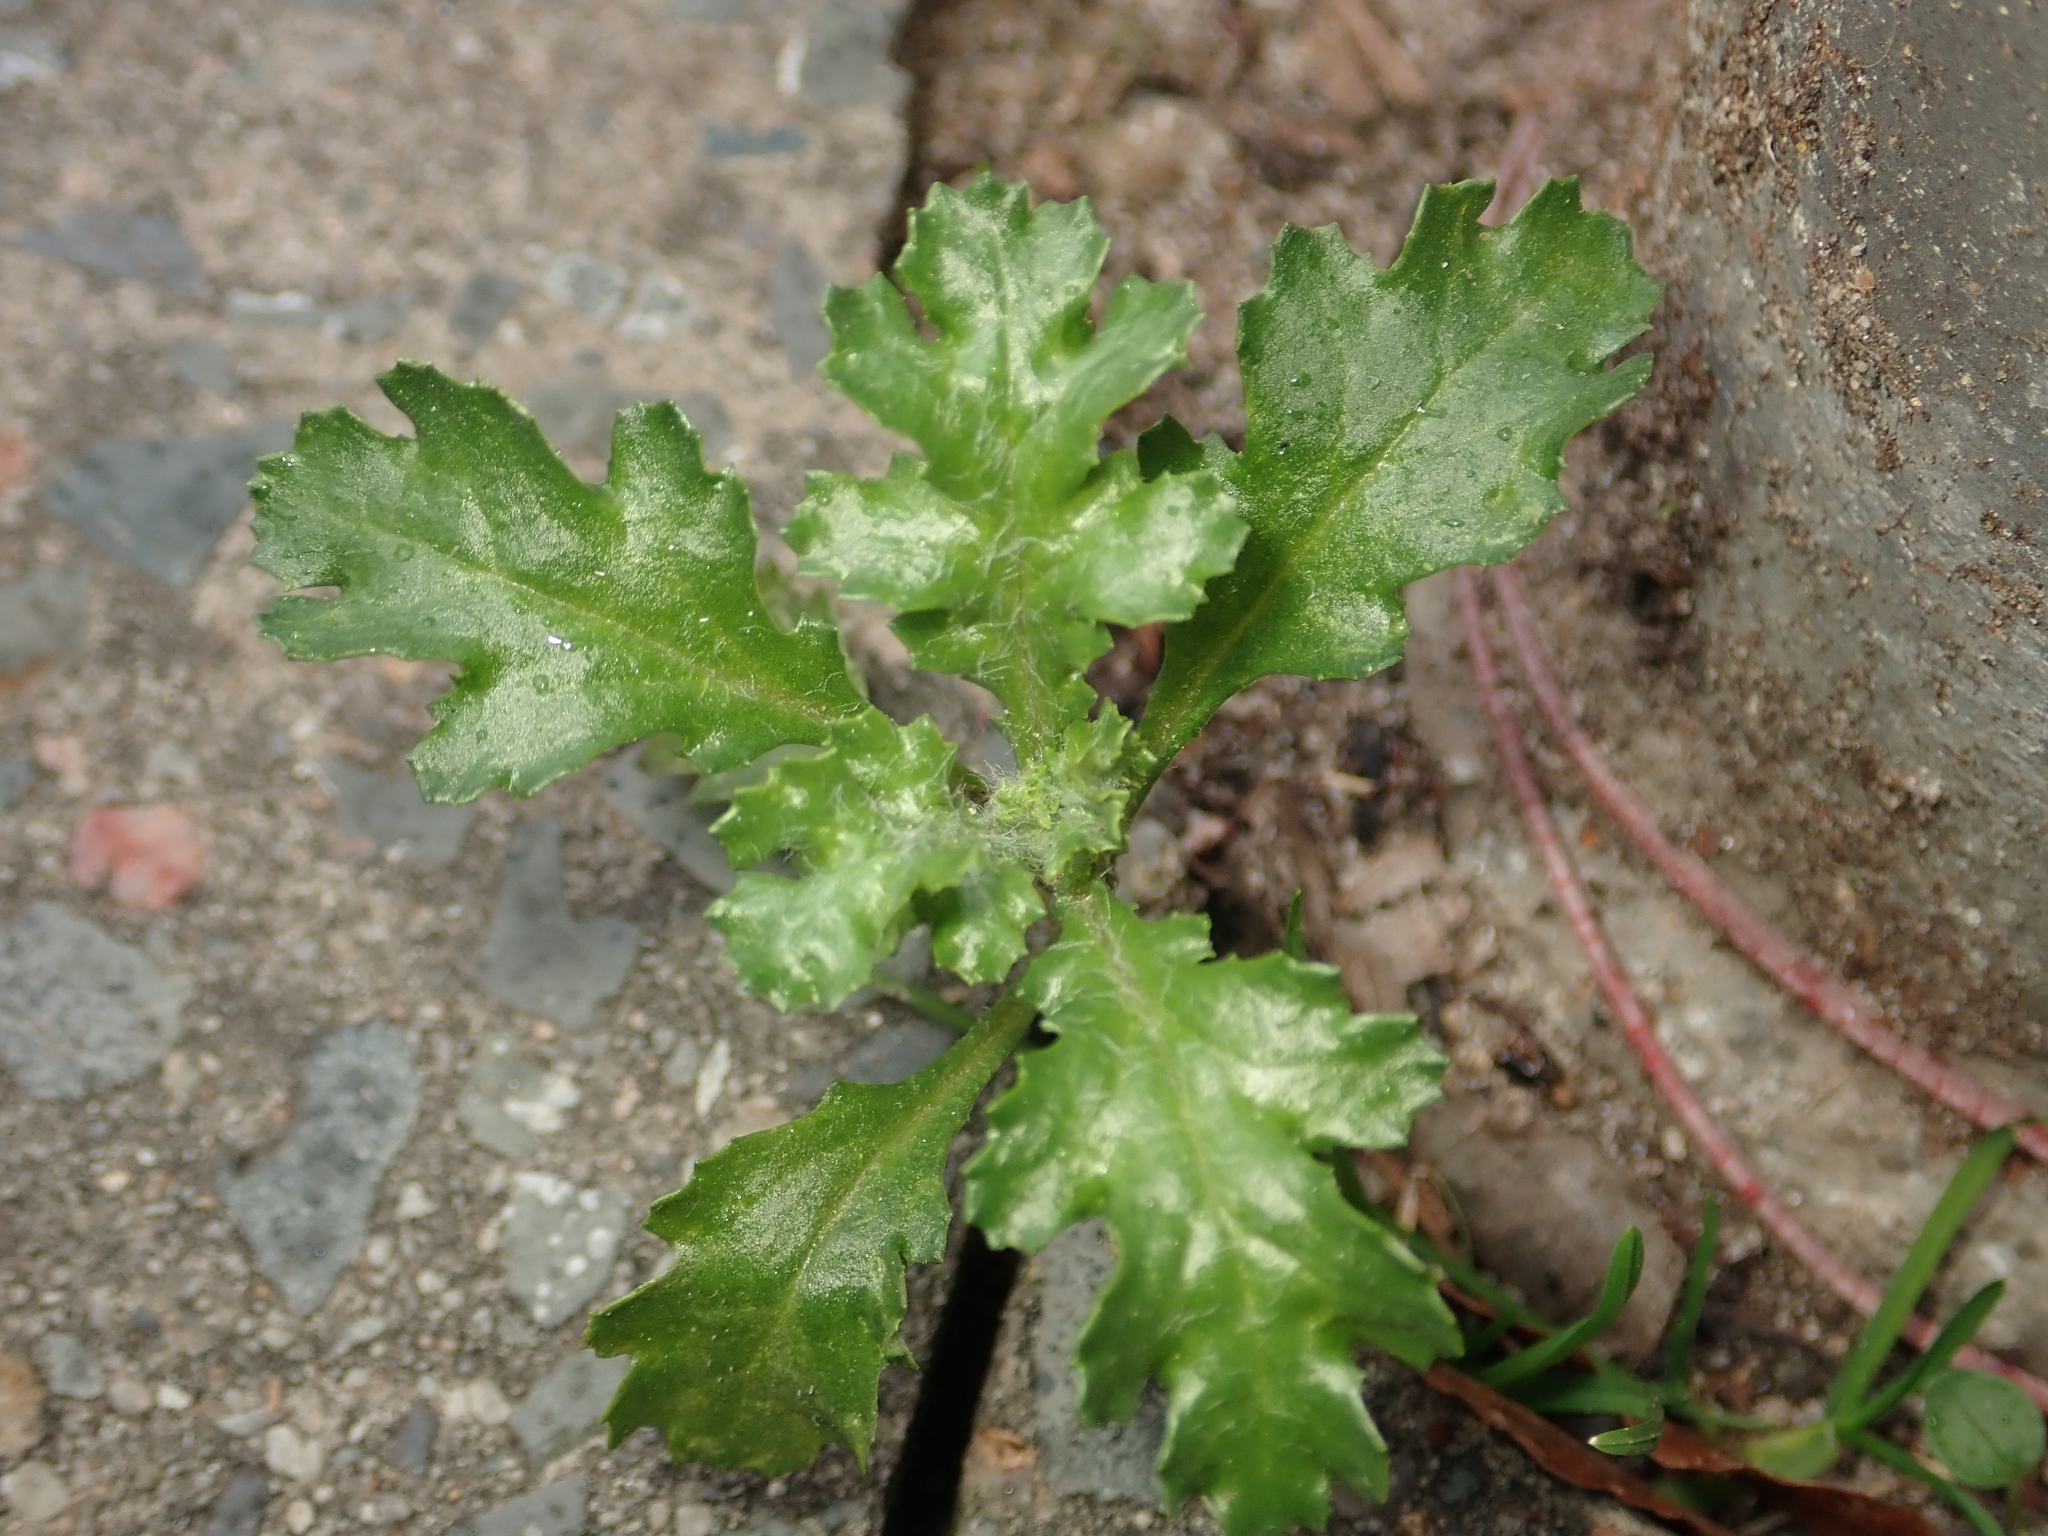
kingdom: Plantae
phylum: Tracheophyta
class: Magnoliopsida
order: Asterales
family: Asteraceae
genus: Senecio
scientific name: Senecio vulgaris
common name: Old-man-in-the-spring
